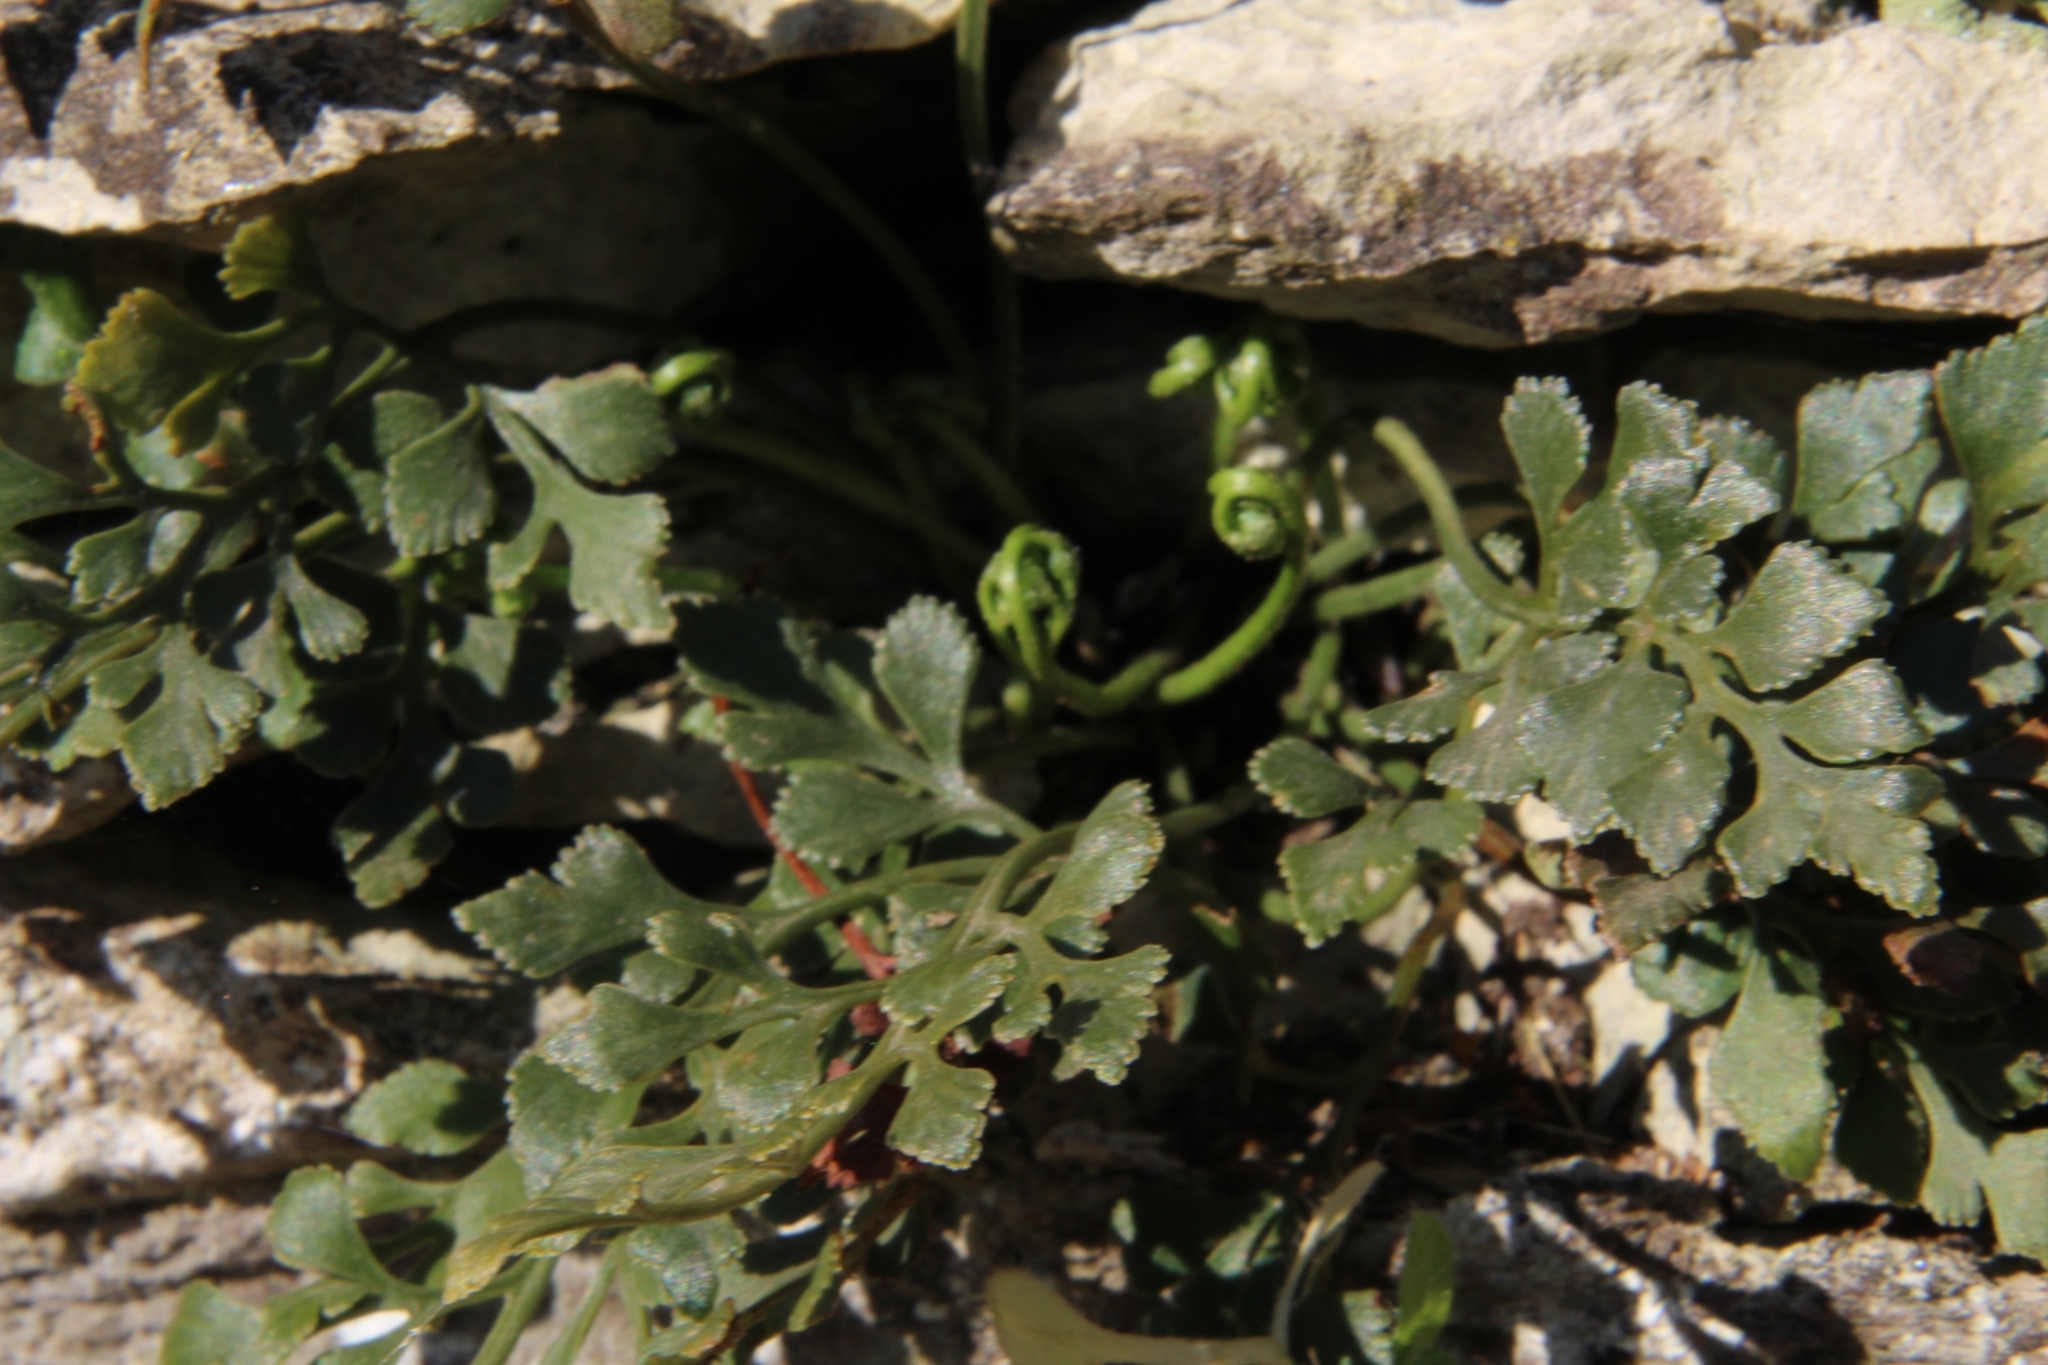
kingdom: Plantae
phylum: Tracheophyta
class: Polypodiopsida
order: Polypodiales
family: Aspleniaceae
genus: Asplenium
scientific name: Asplenium ruta-muraria
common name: Wall-rue
